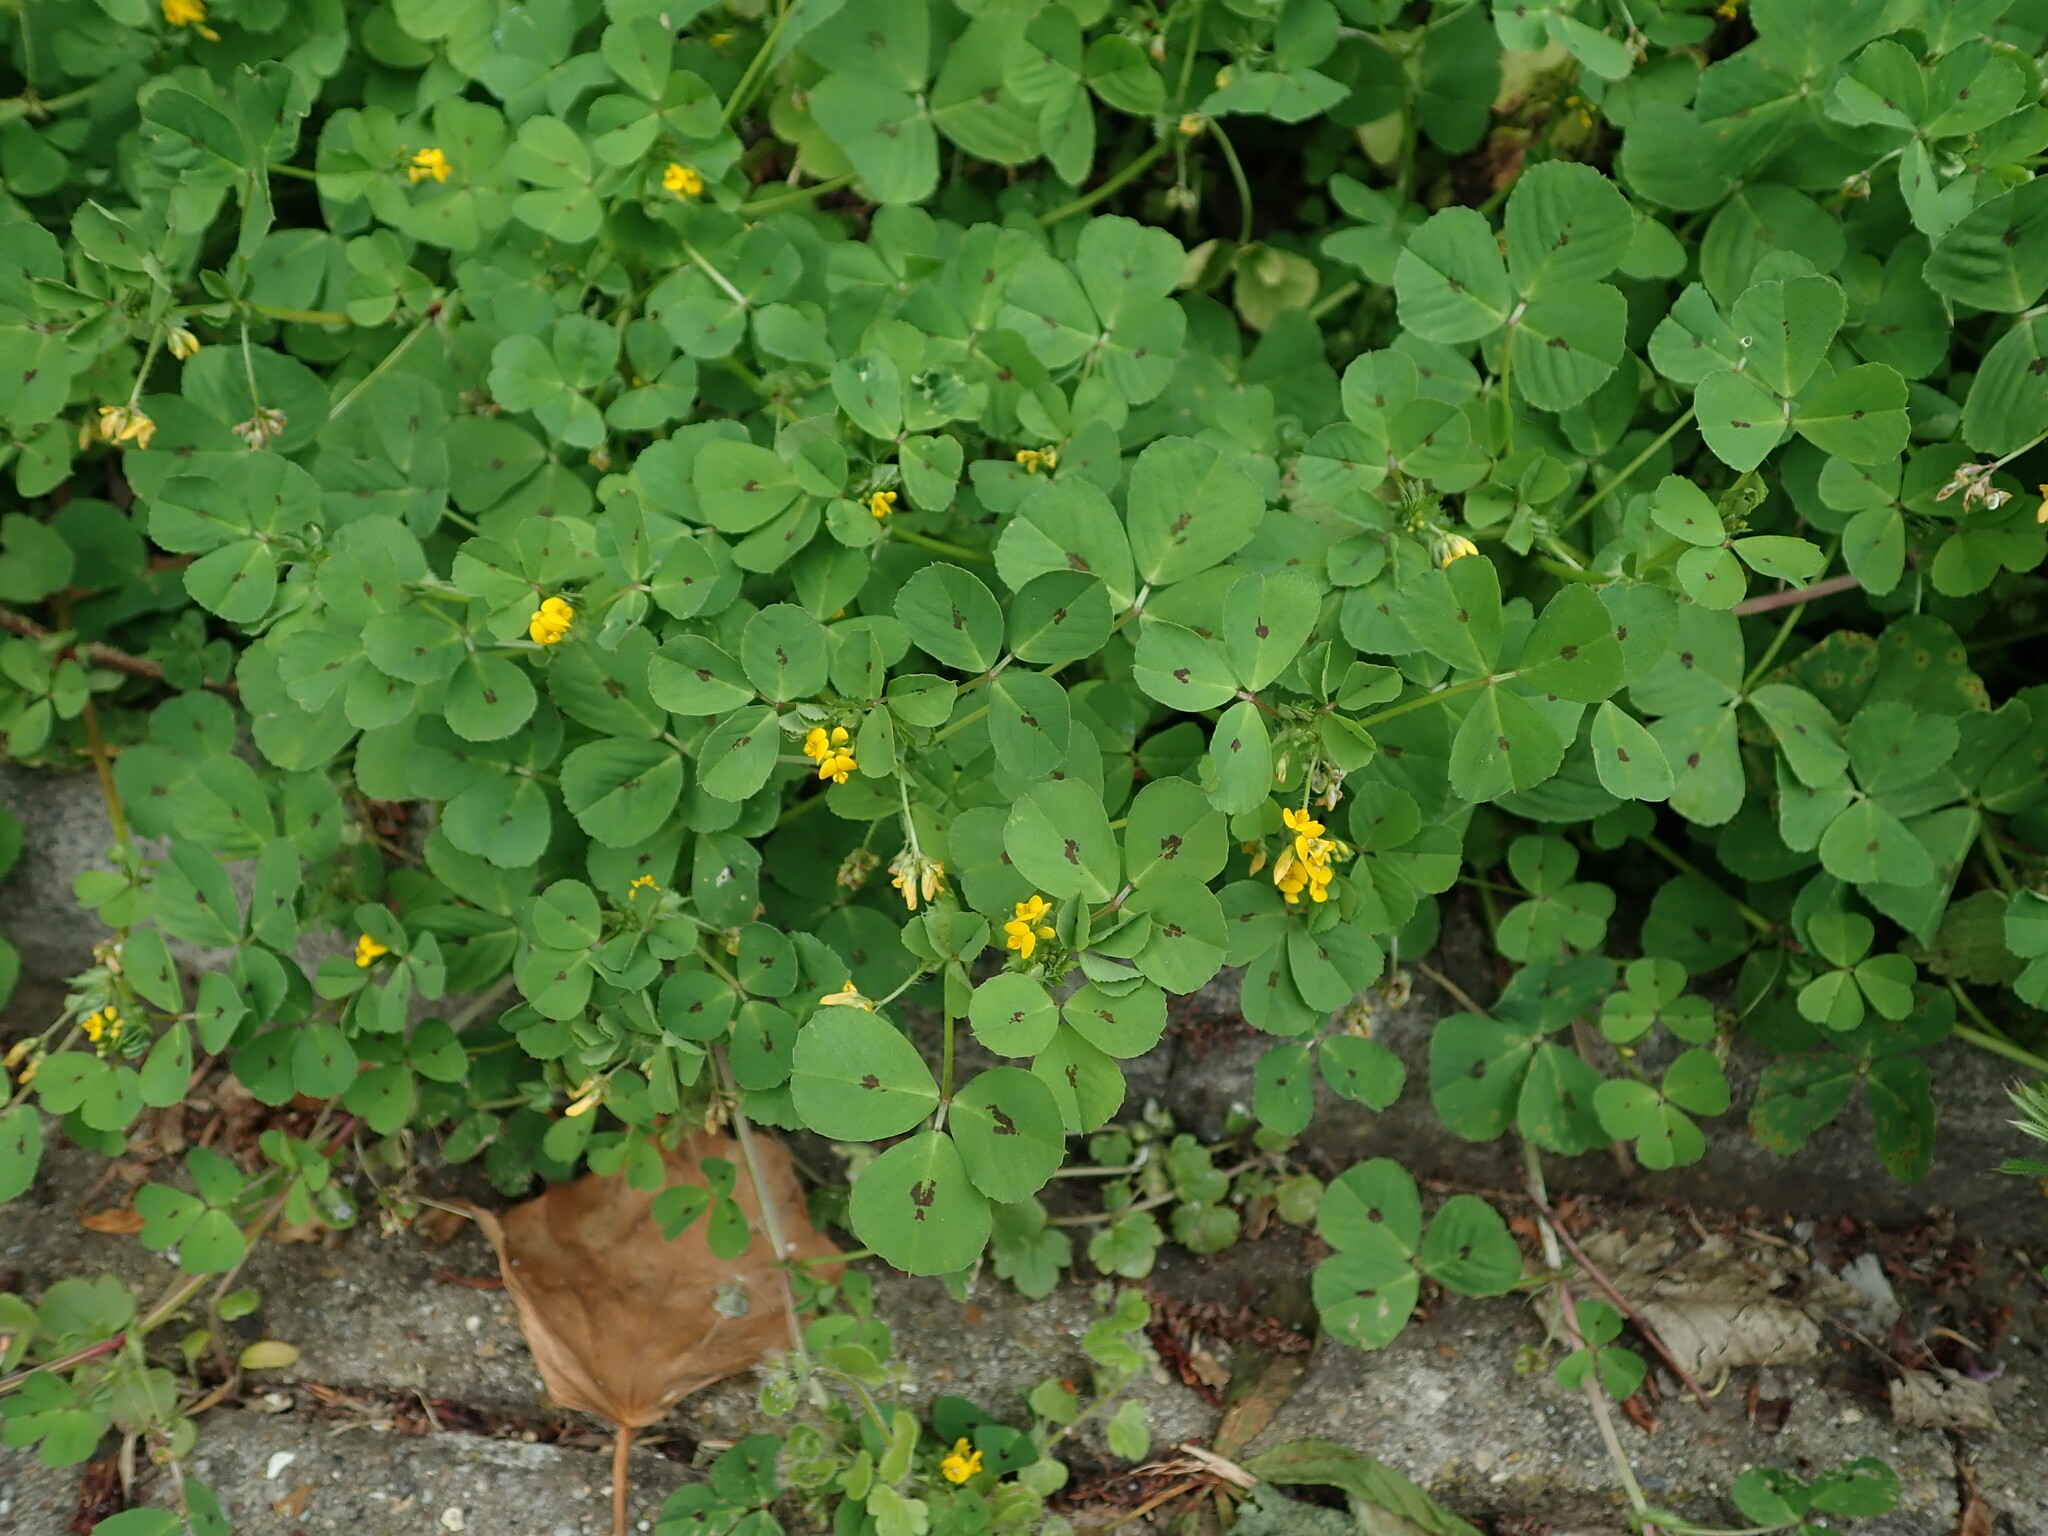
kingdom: Plantae
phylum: Tracheophyta
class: Magnoliopsida
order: Fabales
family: Fabaceae
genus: Medicago
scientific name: Medicago arabica
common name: Spotted medick
